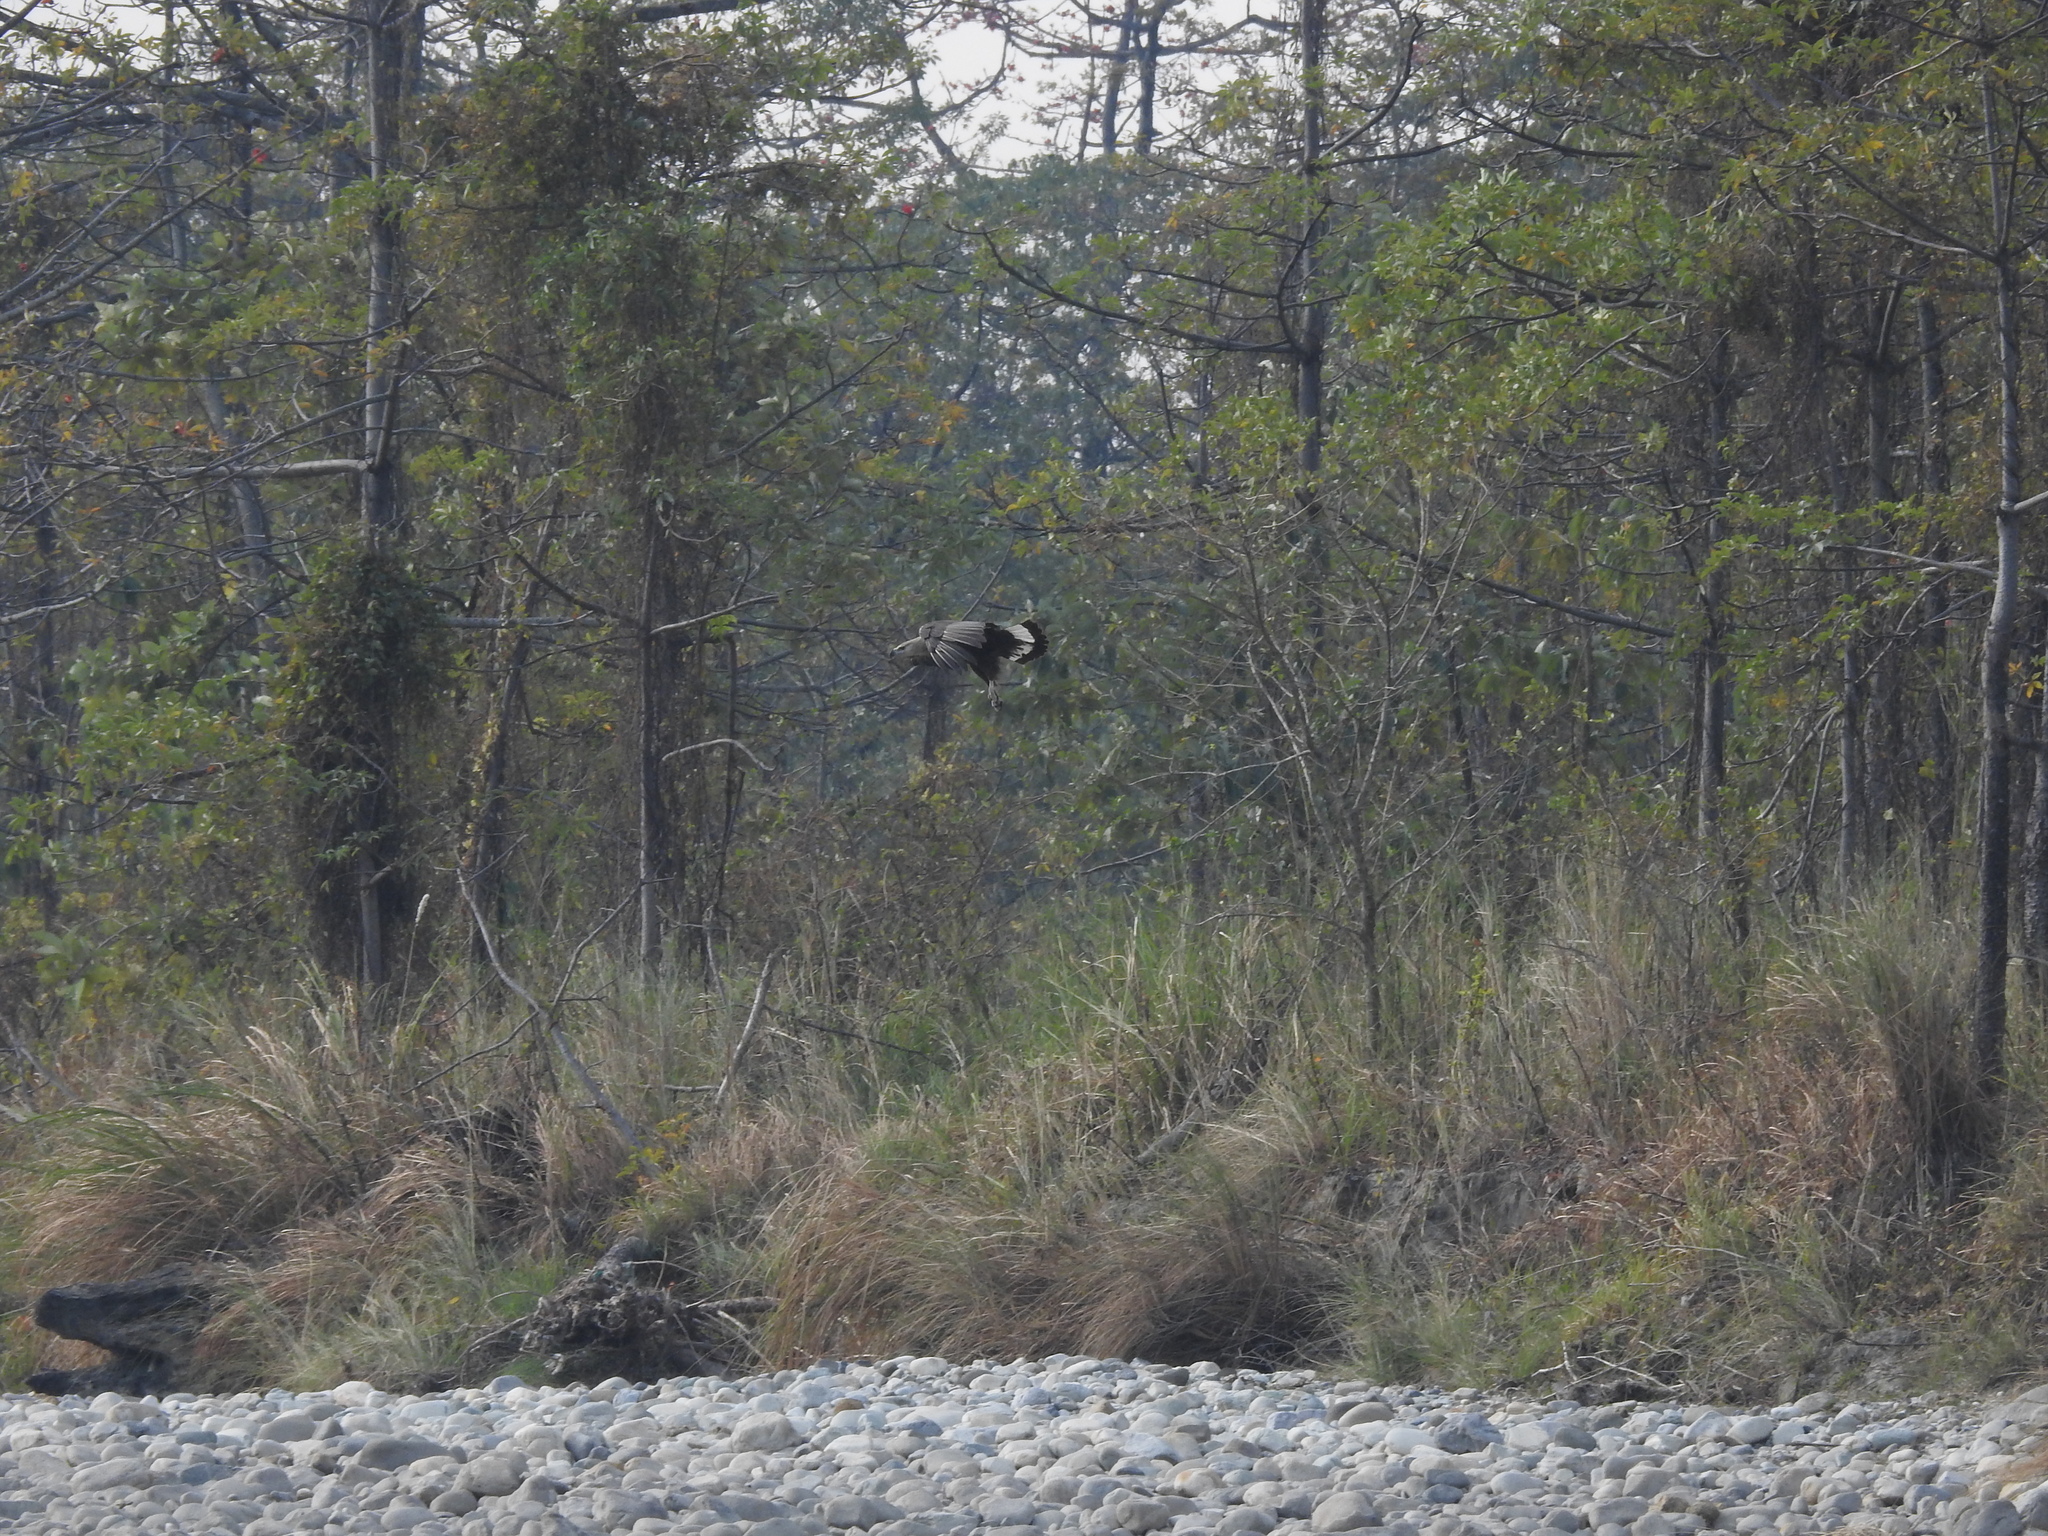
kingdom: Animalia
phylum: Chordata
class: Aves
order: Accipitriformes
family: Accipitridae
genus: Haliaeetus
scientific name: Haliaeetus leucoryphus
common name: Pallas's fish eagle
